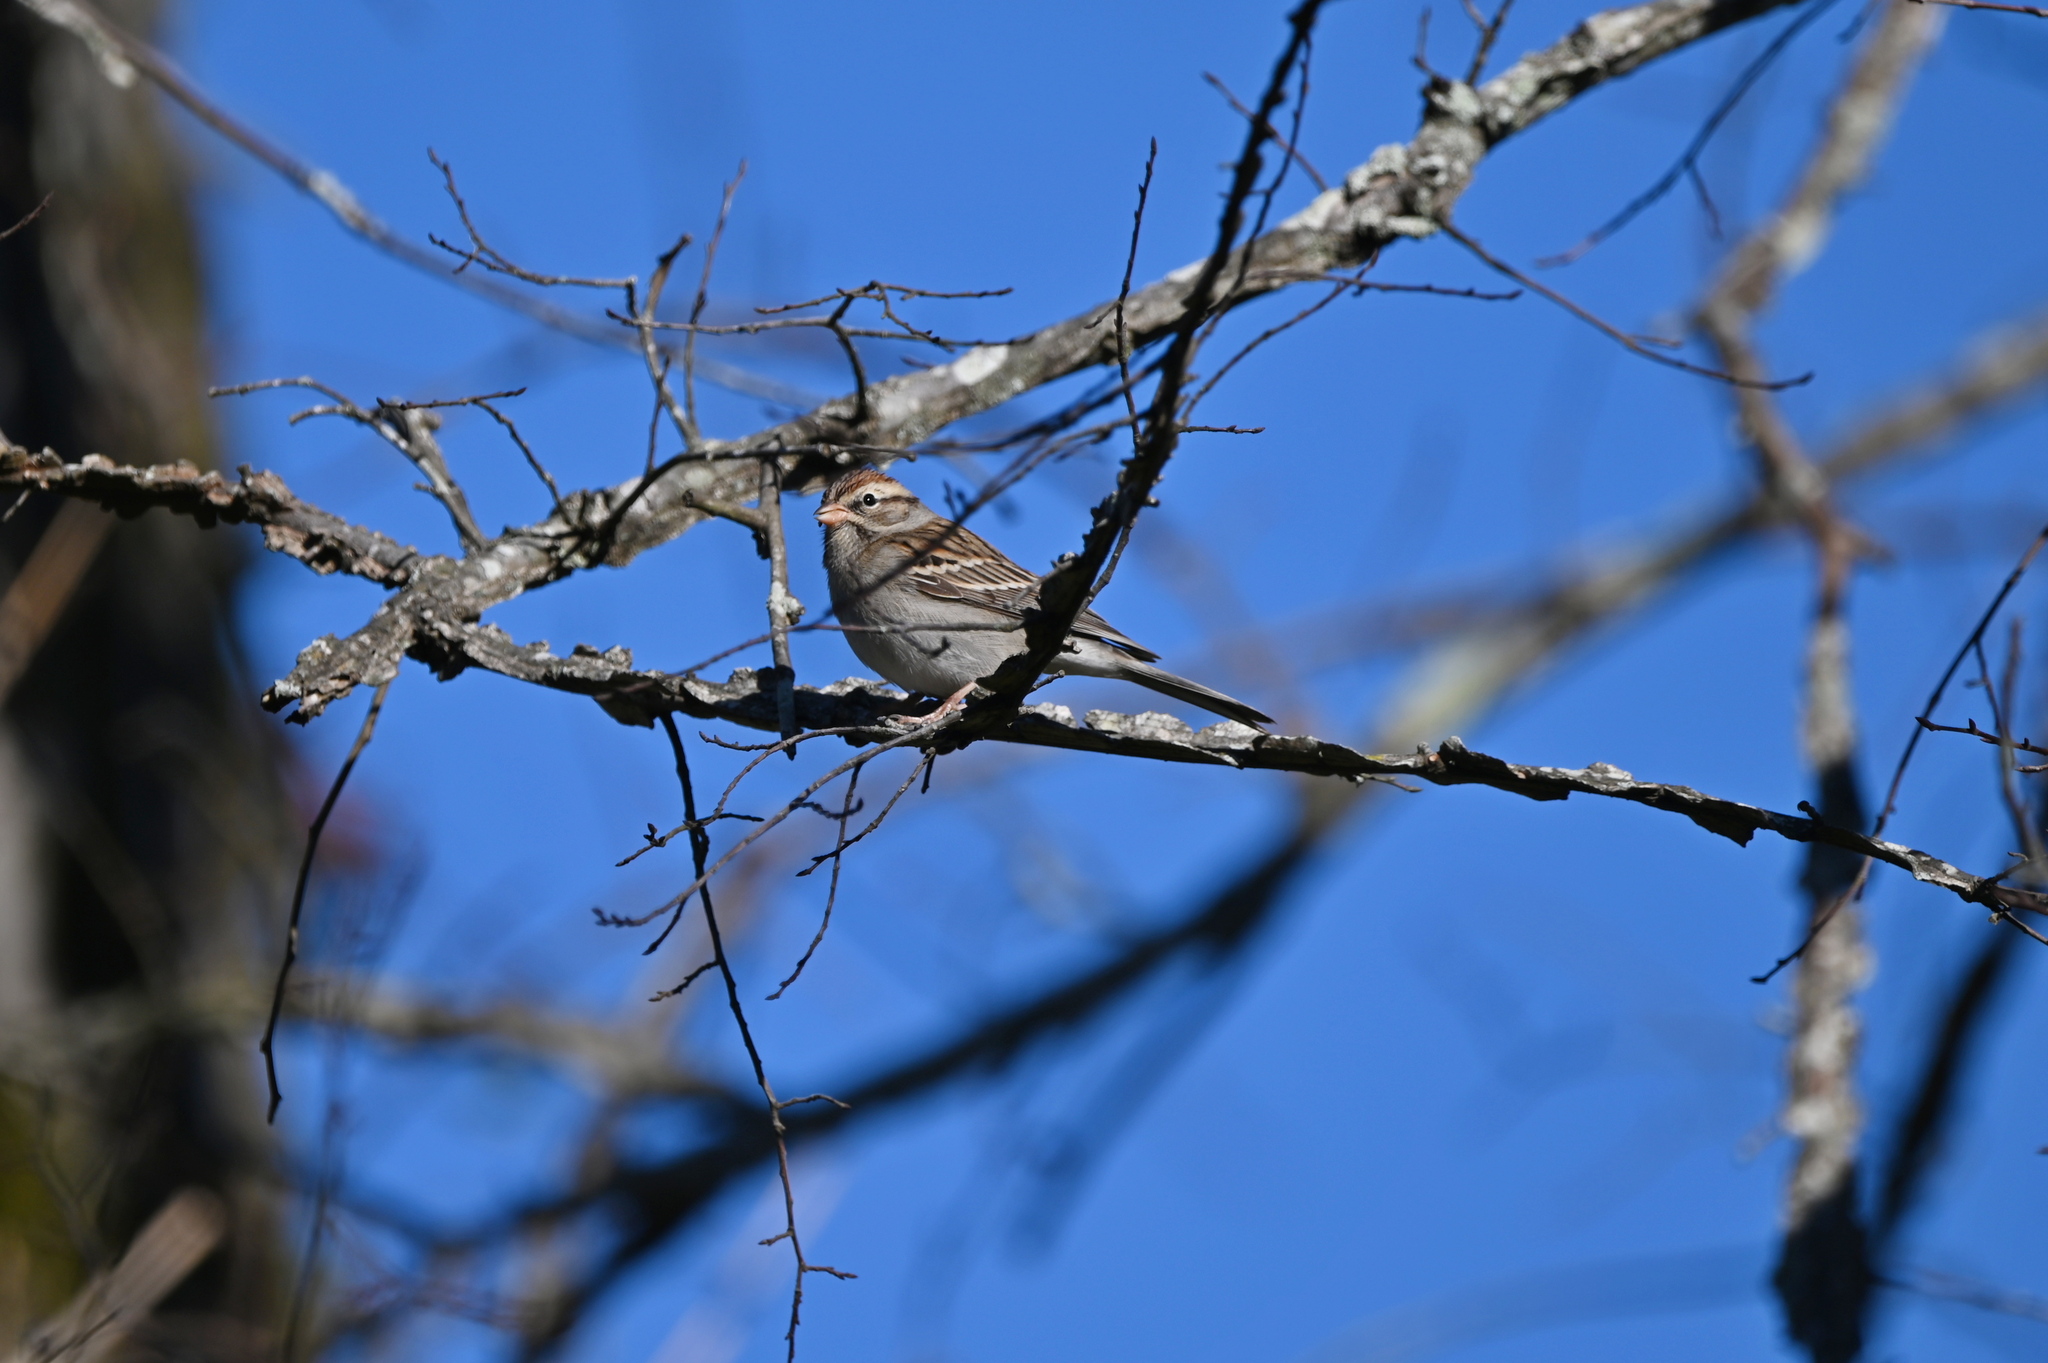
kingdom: Animalia
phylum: Chordata
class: Aves
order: Passeriformes
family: Passerellidae
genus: Spizella
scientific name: Spizella passerina
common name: Chipping sparrow
